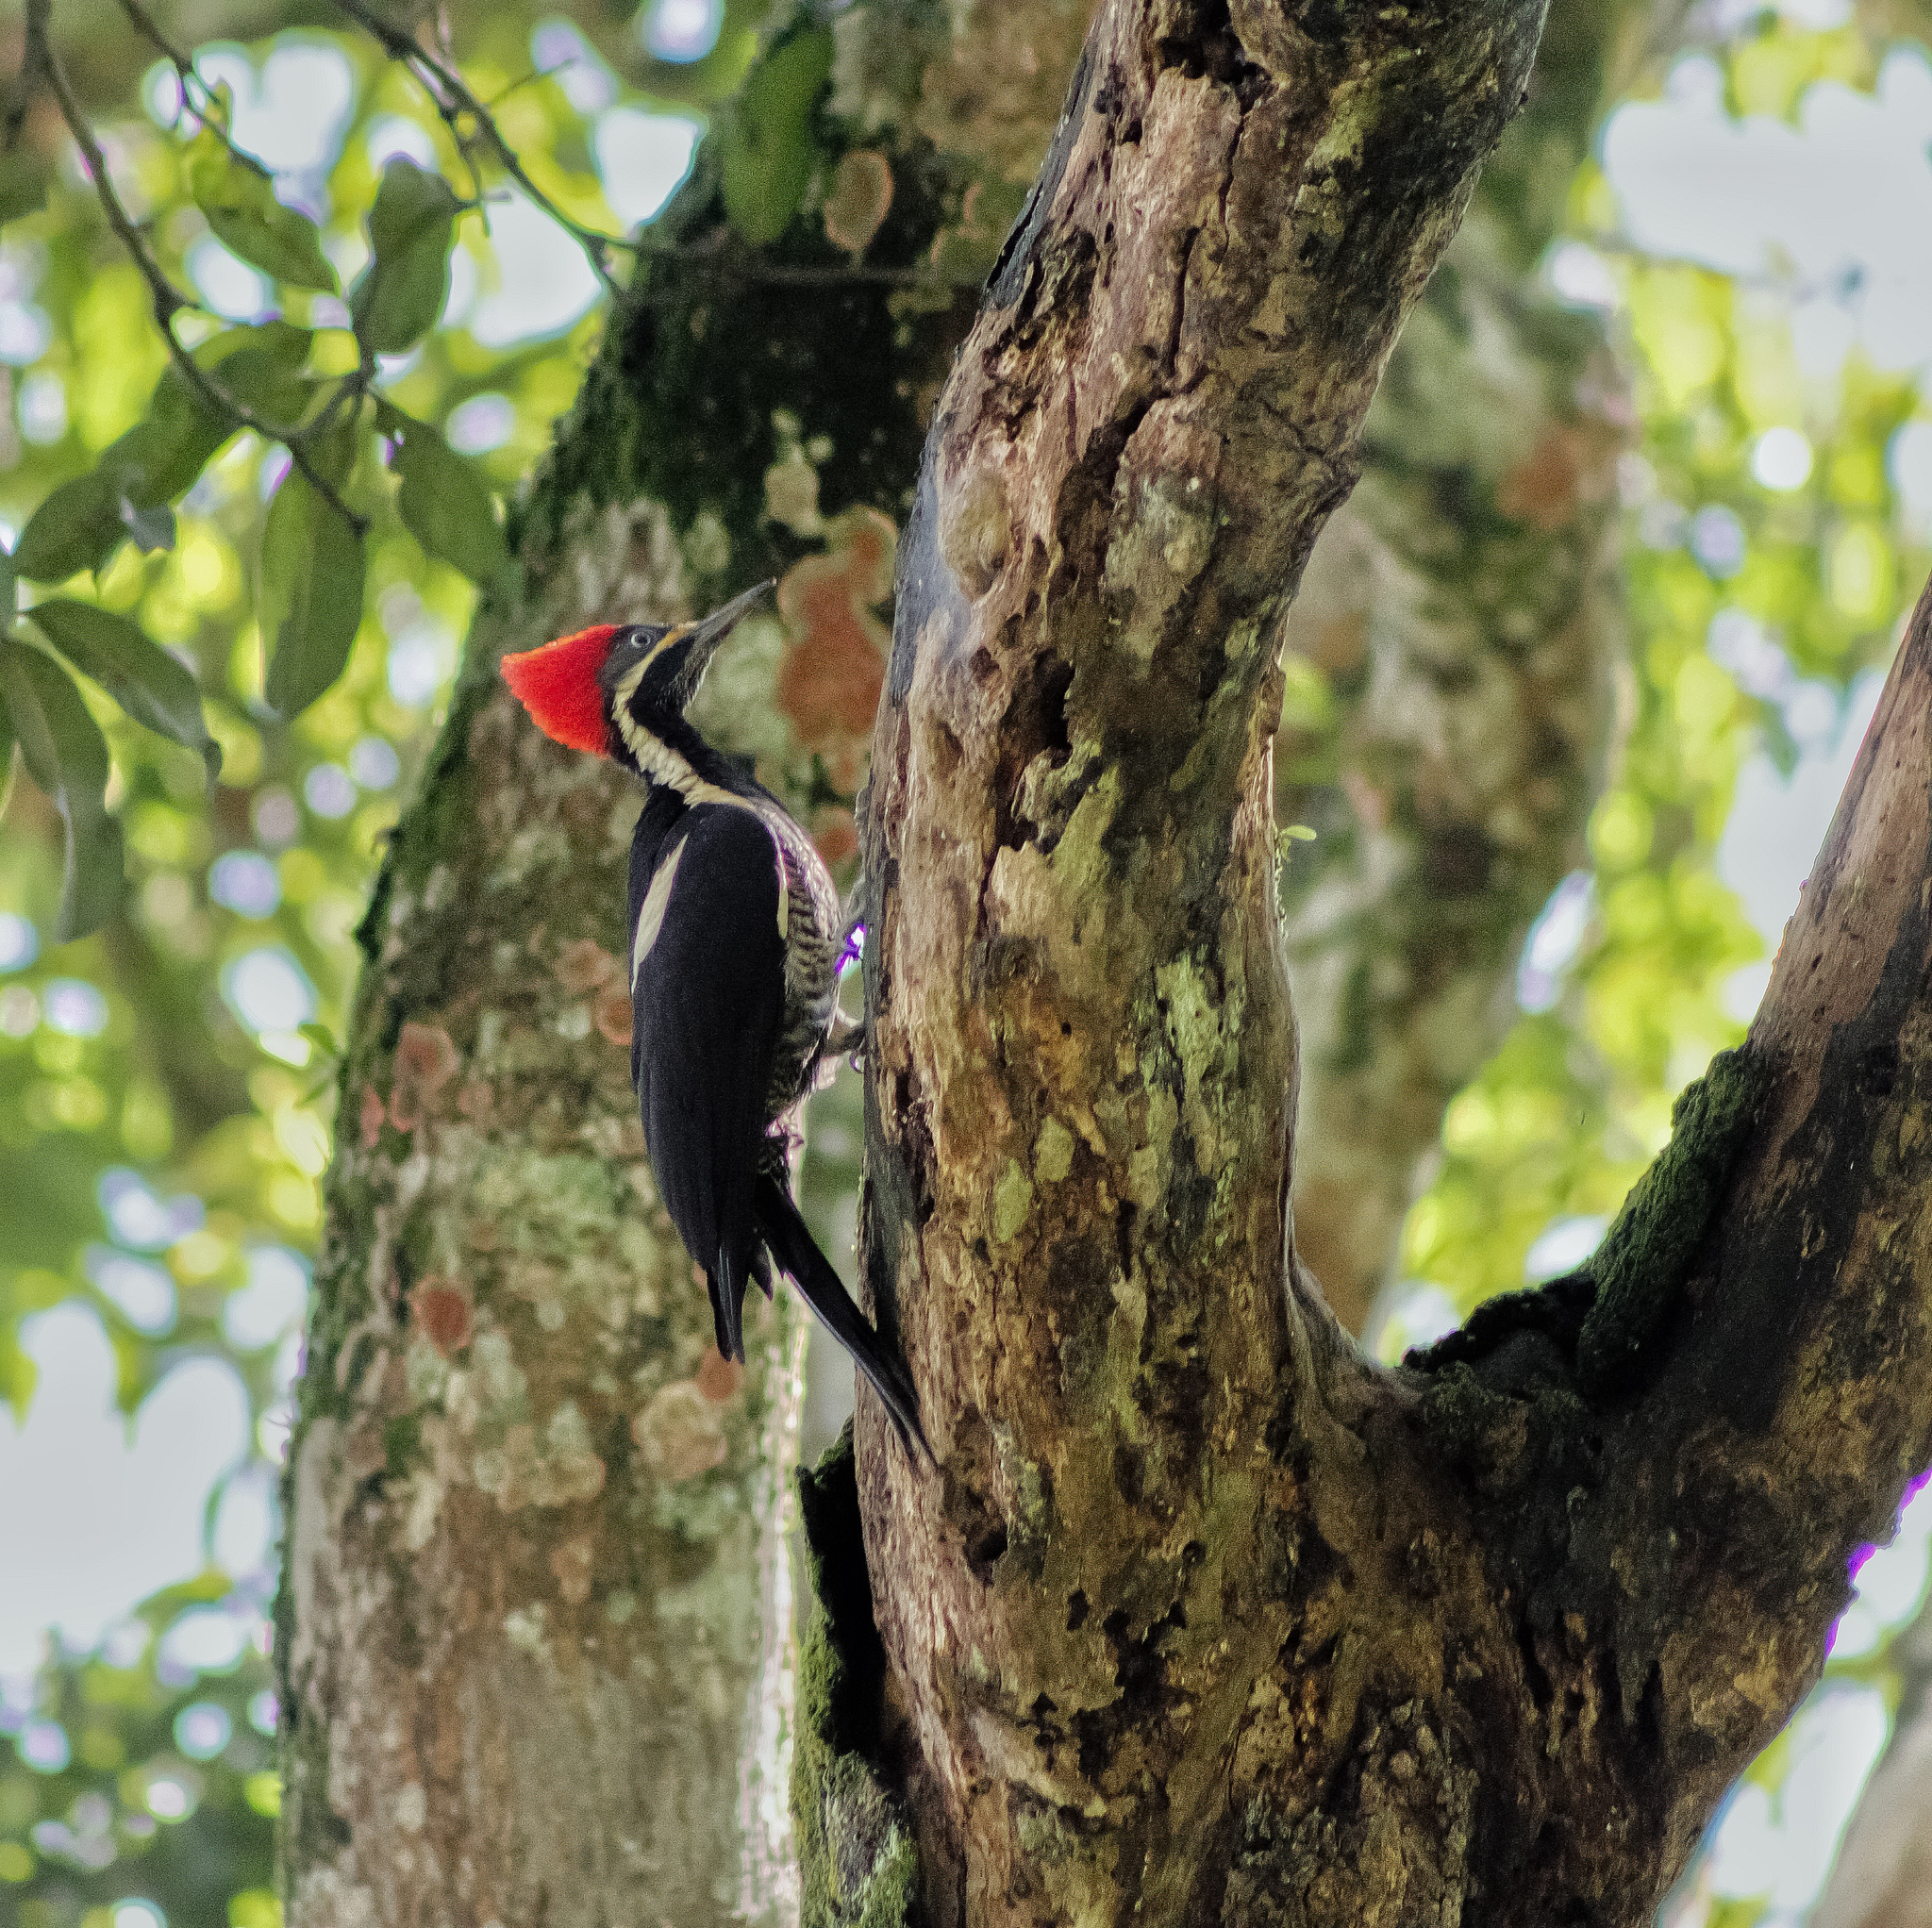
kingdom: Animalia
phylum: Chordata
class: Aves
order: Piciformes
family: Picidae
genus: Dryocopus
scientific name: Dryocopus lineatus
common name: Lineated woodpecker
